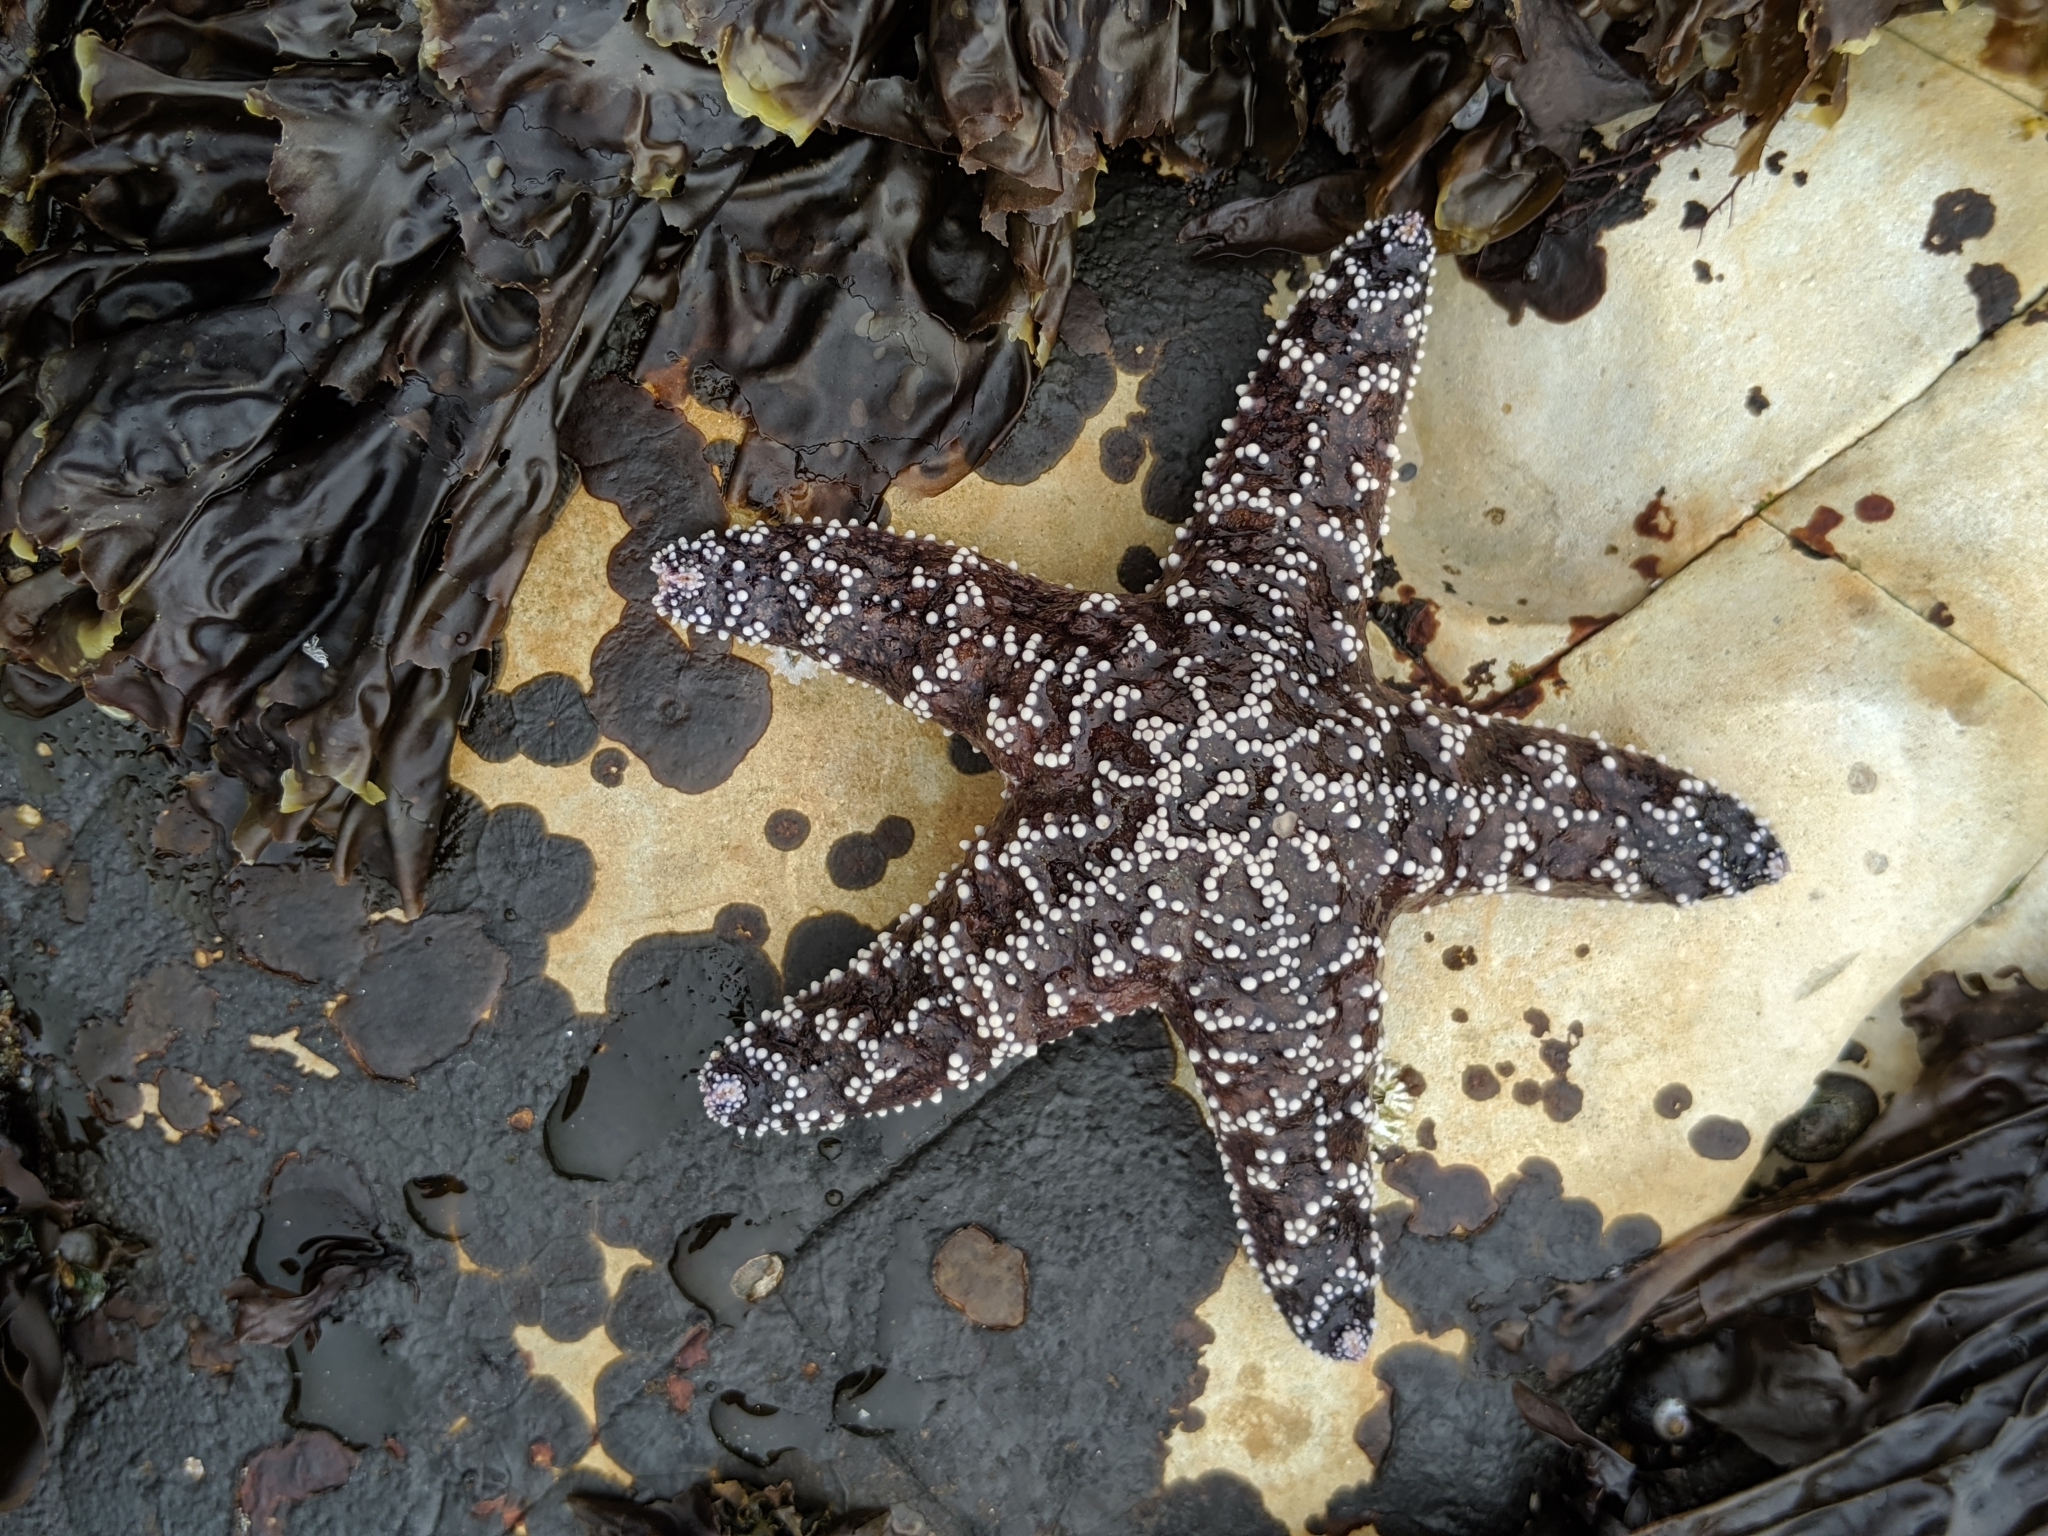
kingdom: Animalia
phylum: Echinodermata
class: Asteroidea
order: Forcipulatida
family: Asteriidae
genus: Pisaster
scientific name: Pisaster ochraceus
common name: Ochre stars
